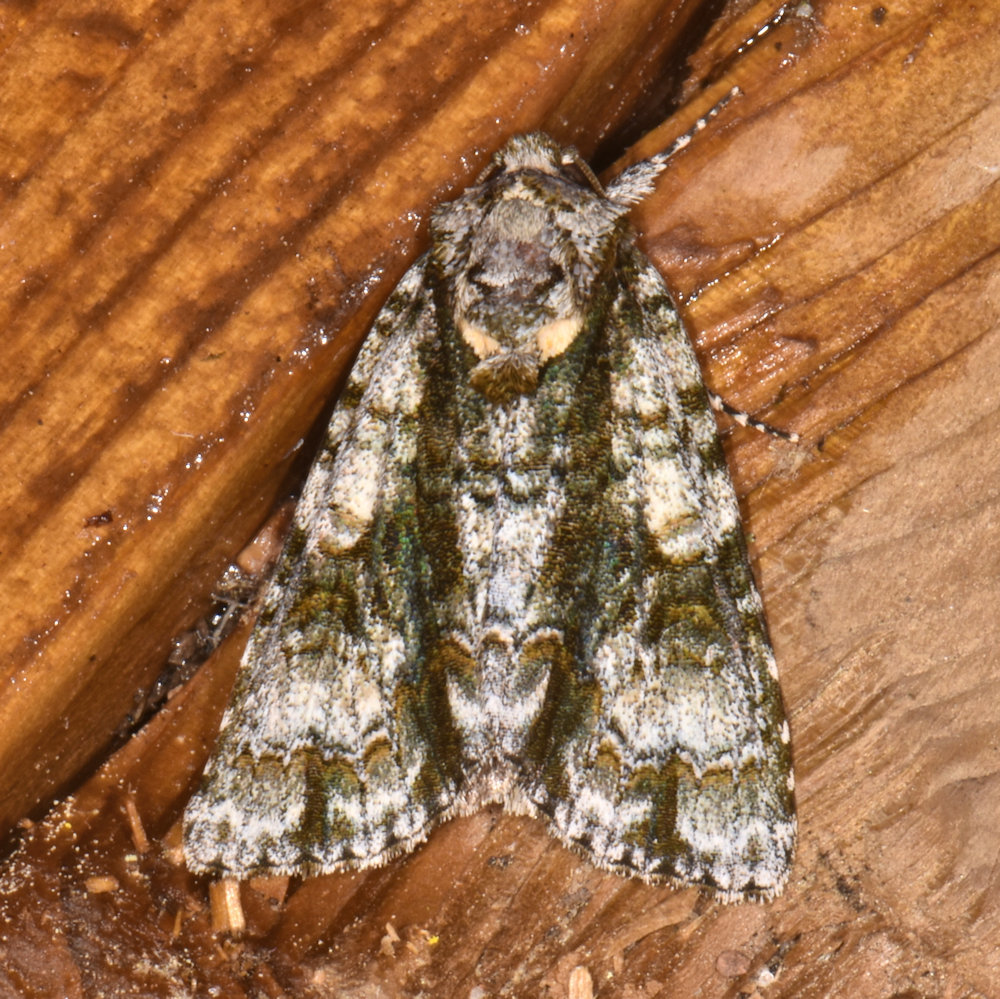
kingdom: Animalia
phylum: Arthropoda
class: Insecta
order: Lepidoptera
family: Noctuidae
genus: Acronicta
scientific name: Acronicta superans
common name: Splendid dagger
